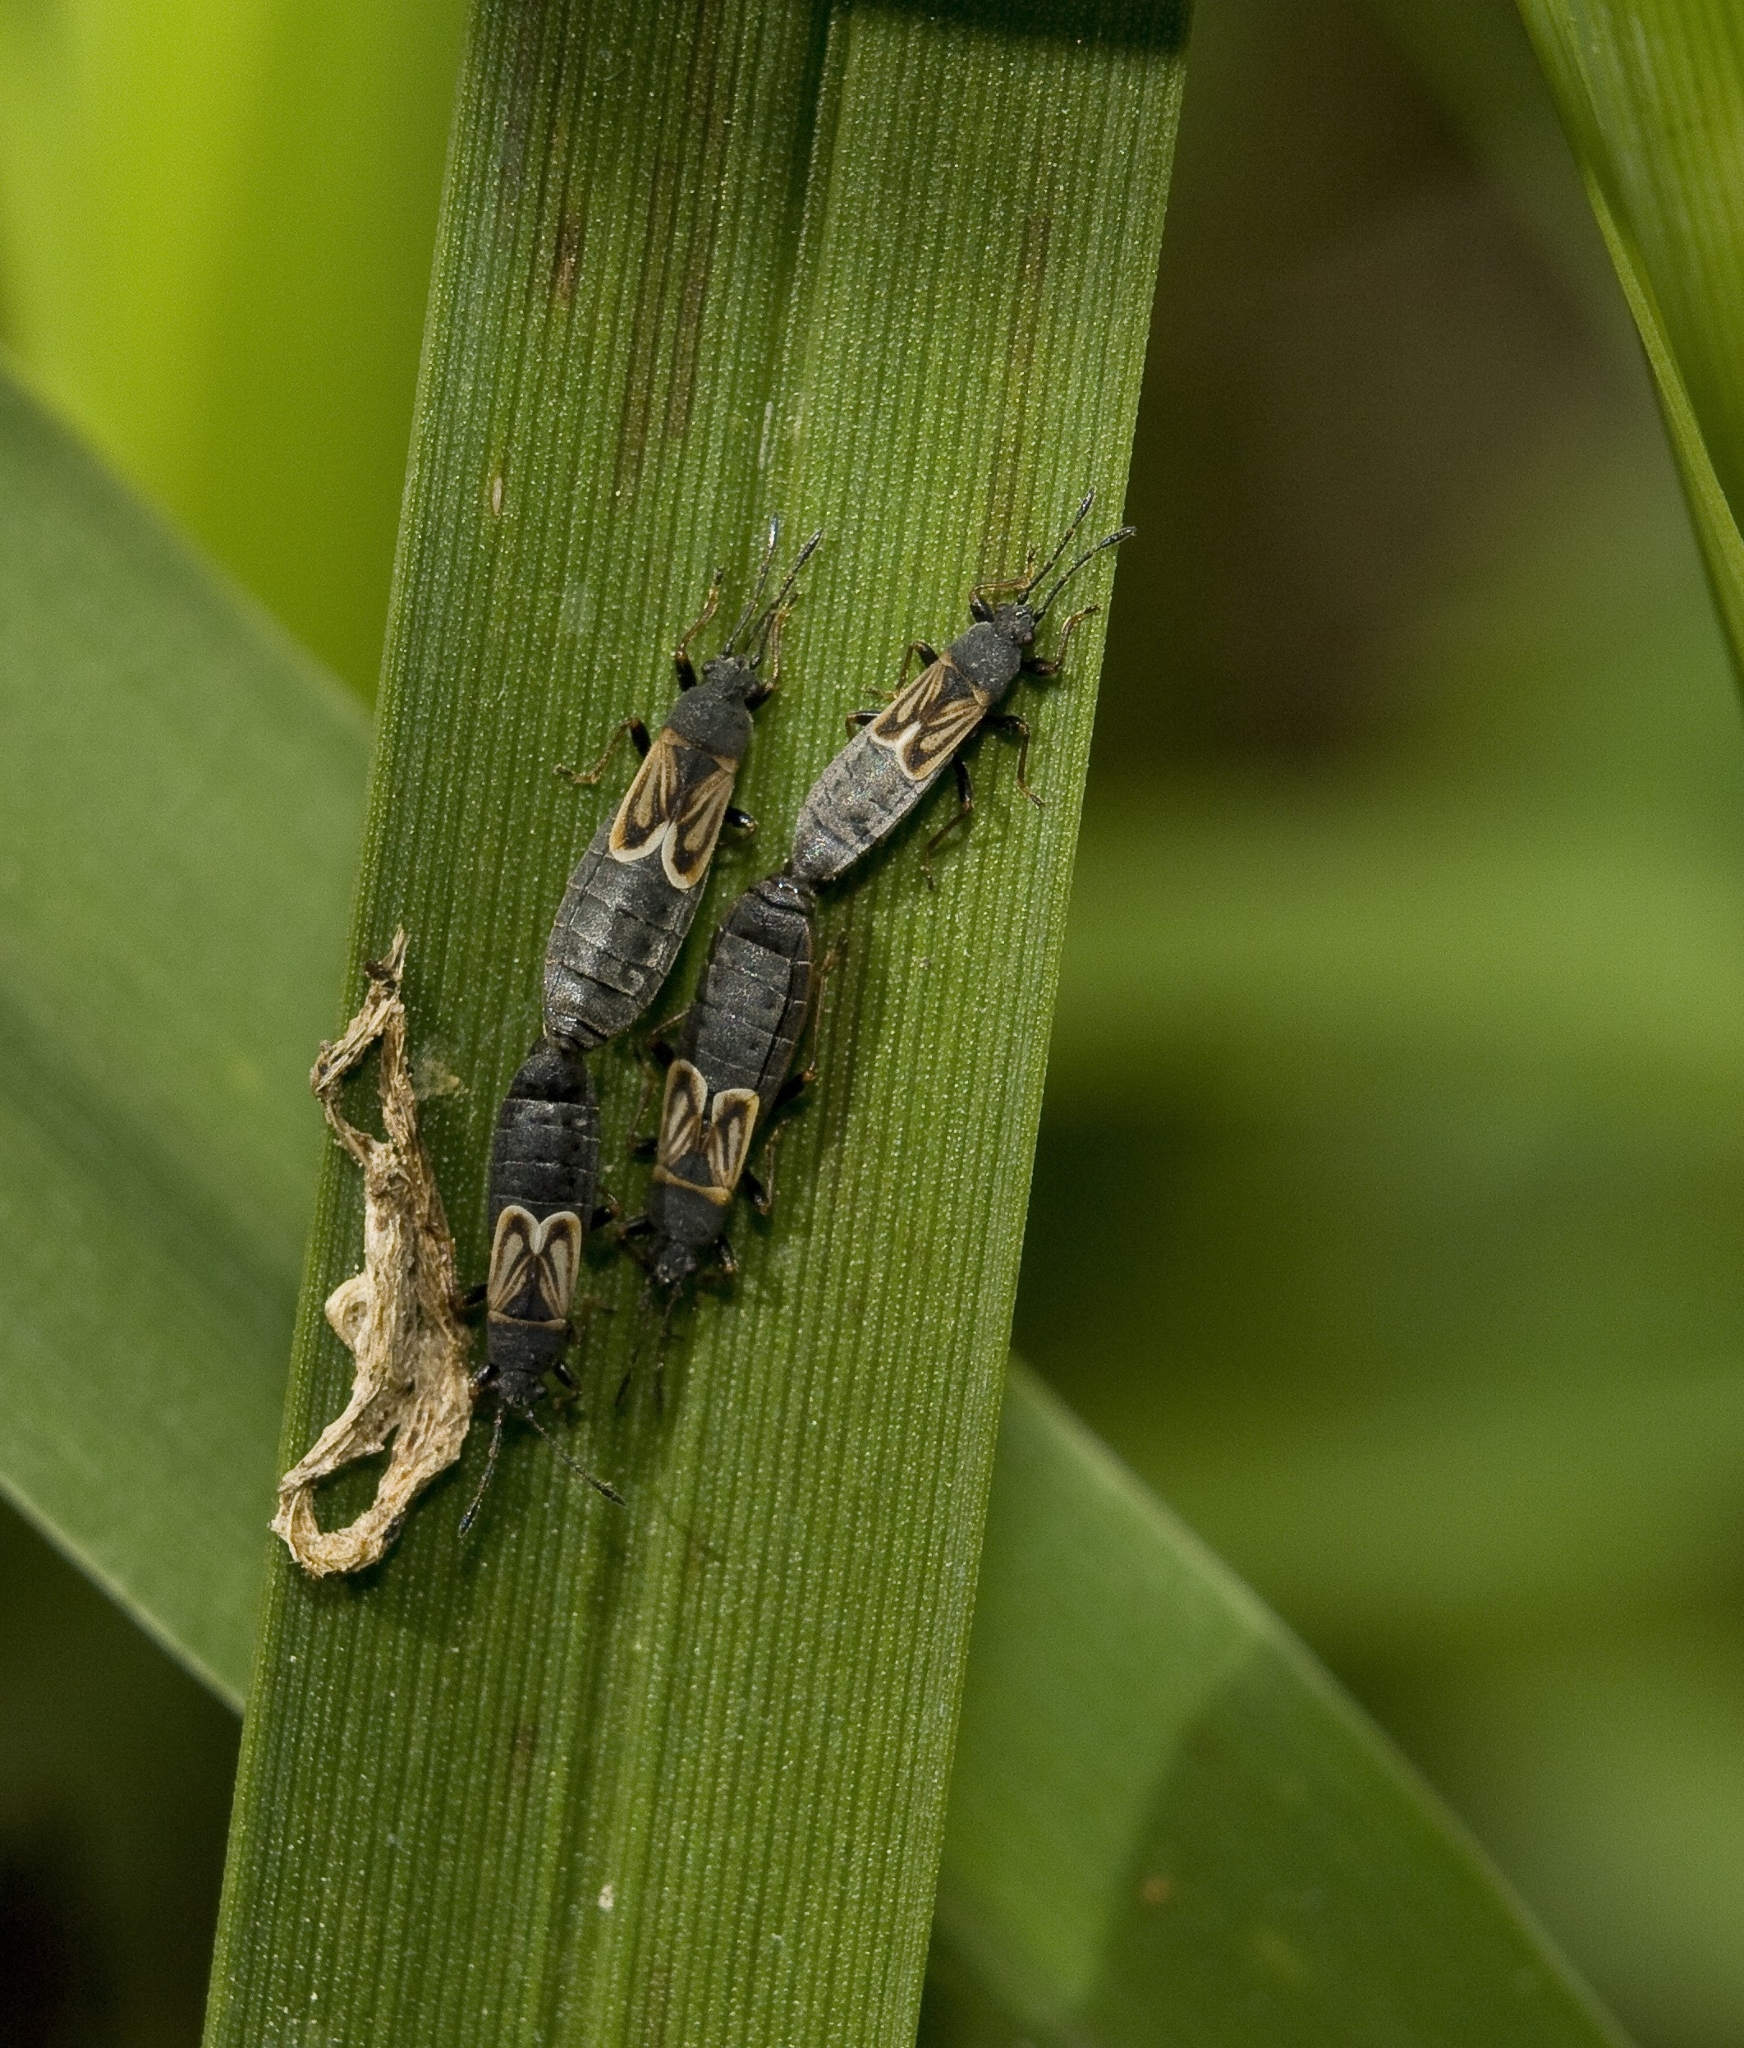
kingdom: Animalia
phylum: Arthropoda
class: Insecta
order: Hemiptera
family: Blissidae
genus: Ischnodemus
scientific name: Ischnodemus sabuleti
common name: European cinchbug
